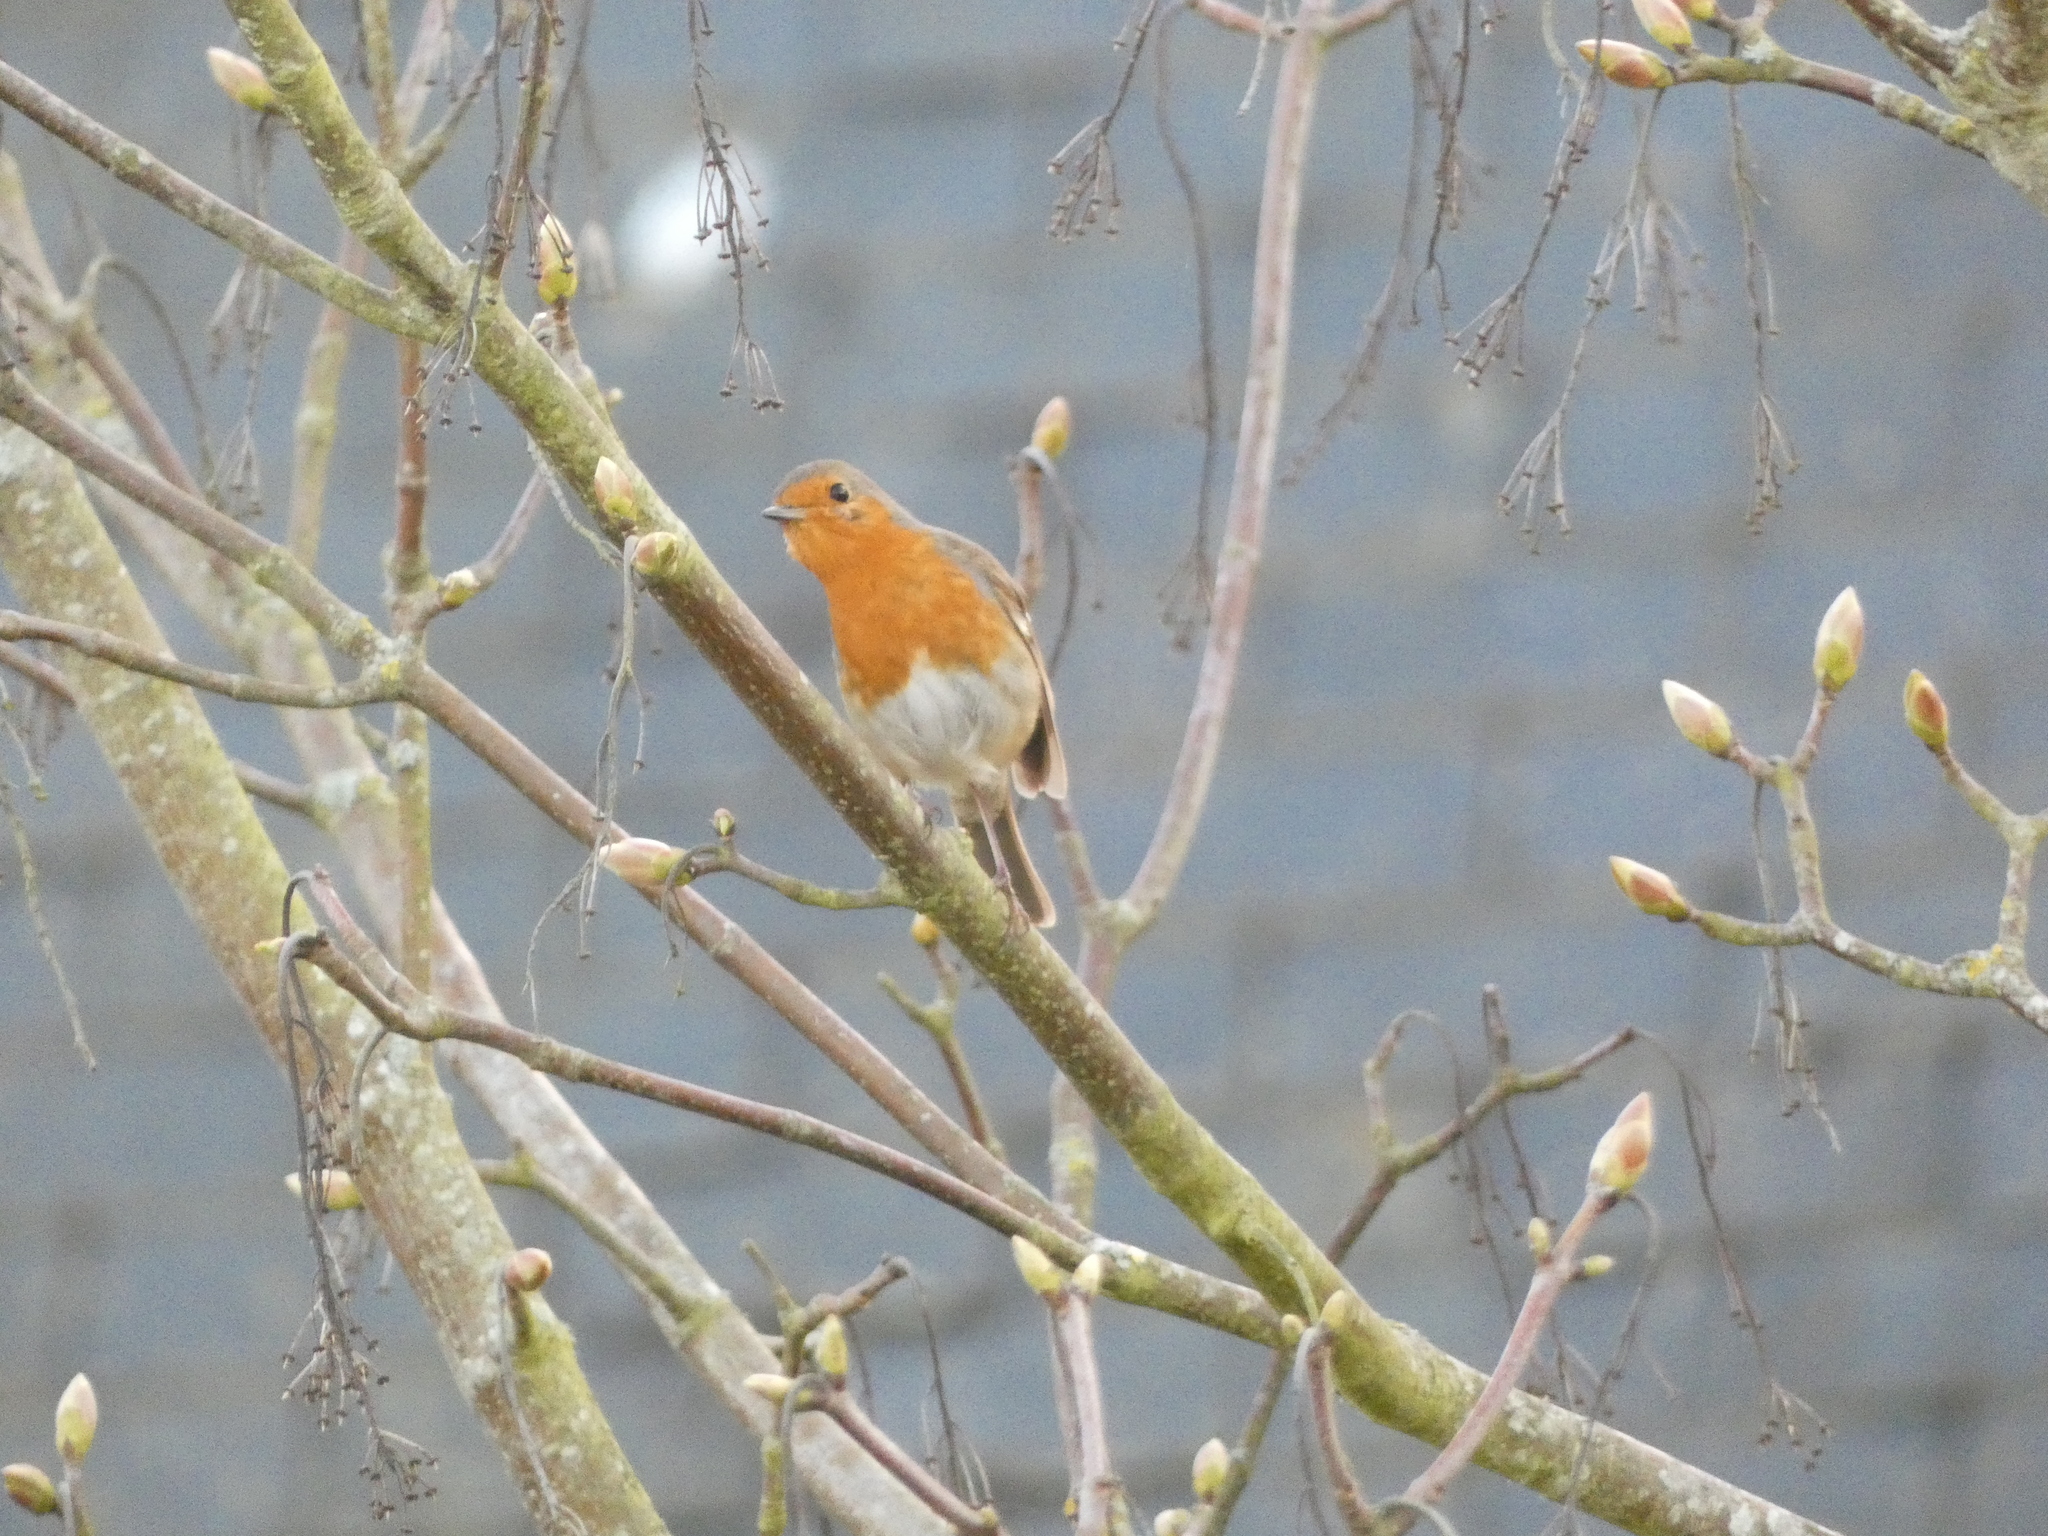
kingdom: Animalia
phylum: Chordata
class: Aves
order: Passeriformes
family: Muscicapidae
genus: Erithacus
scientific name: Erithacus rubecula
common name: European robin
